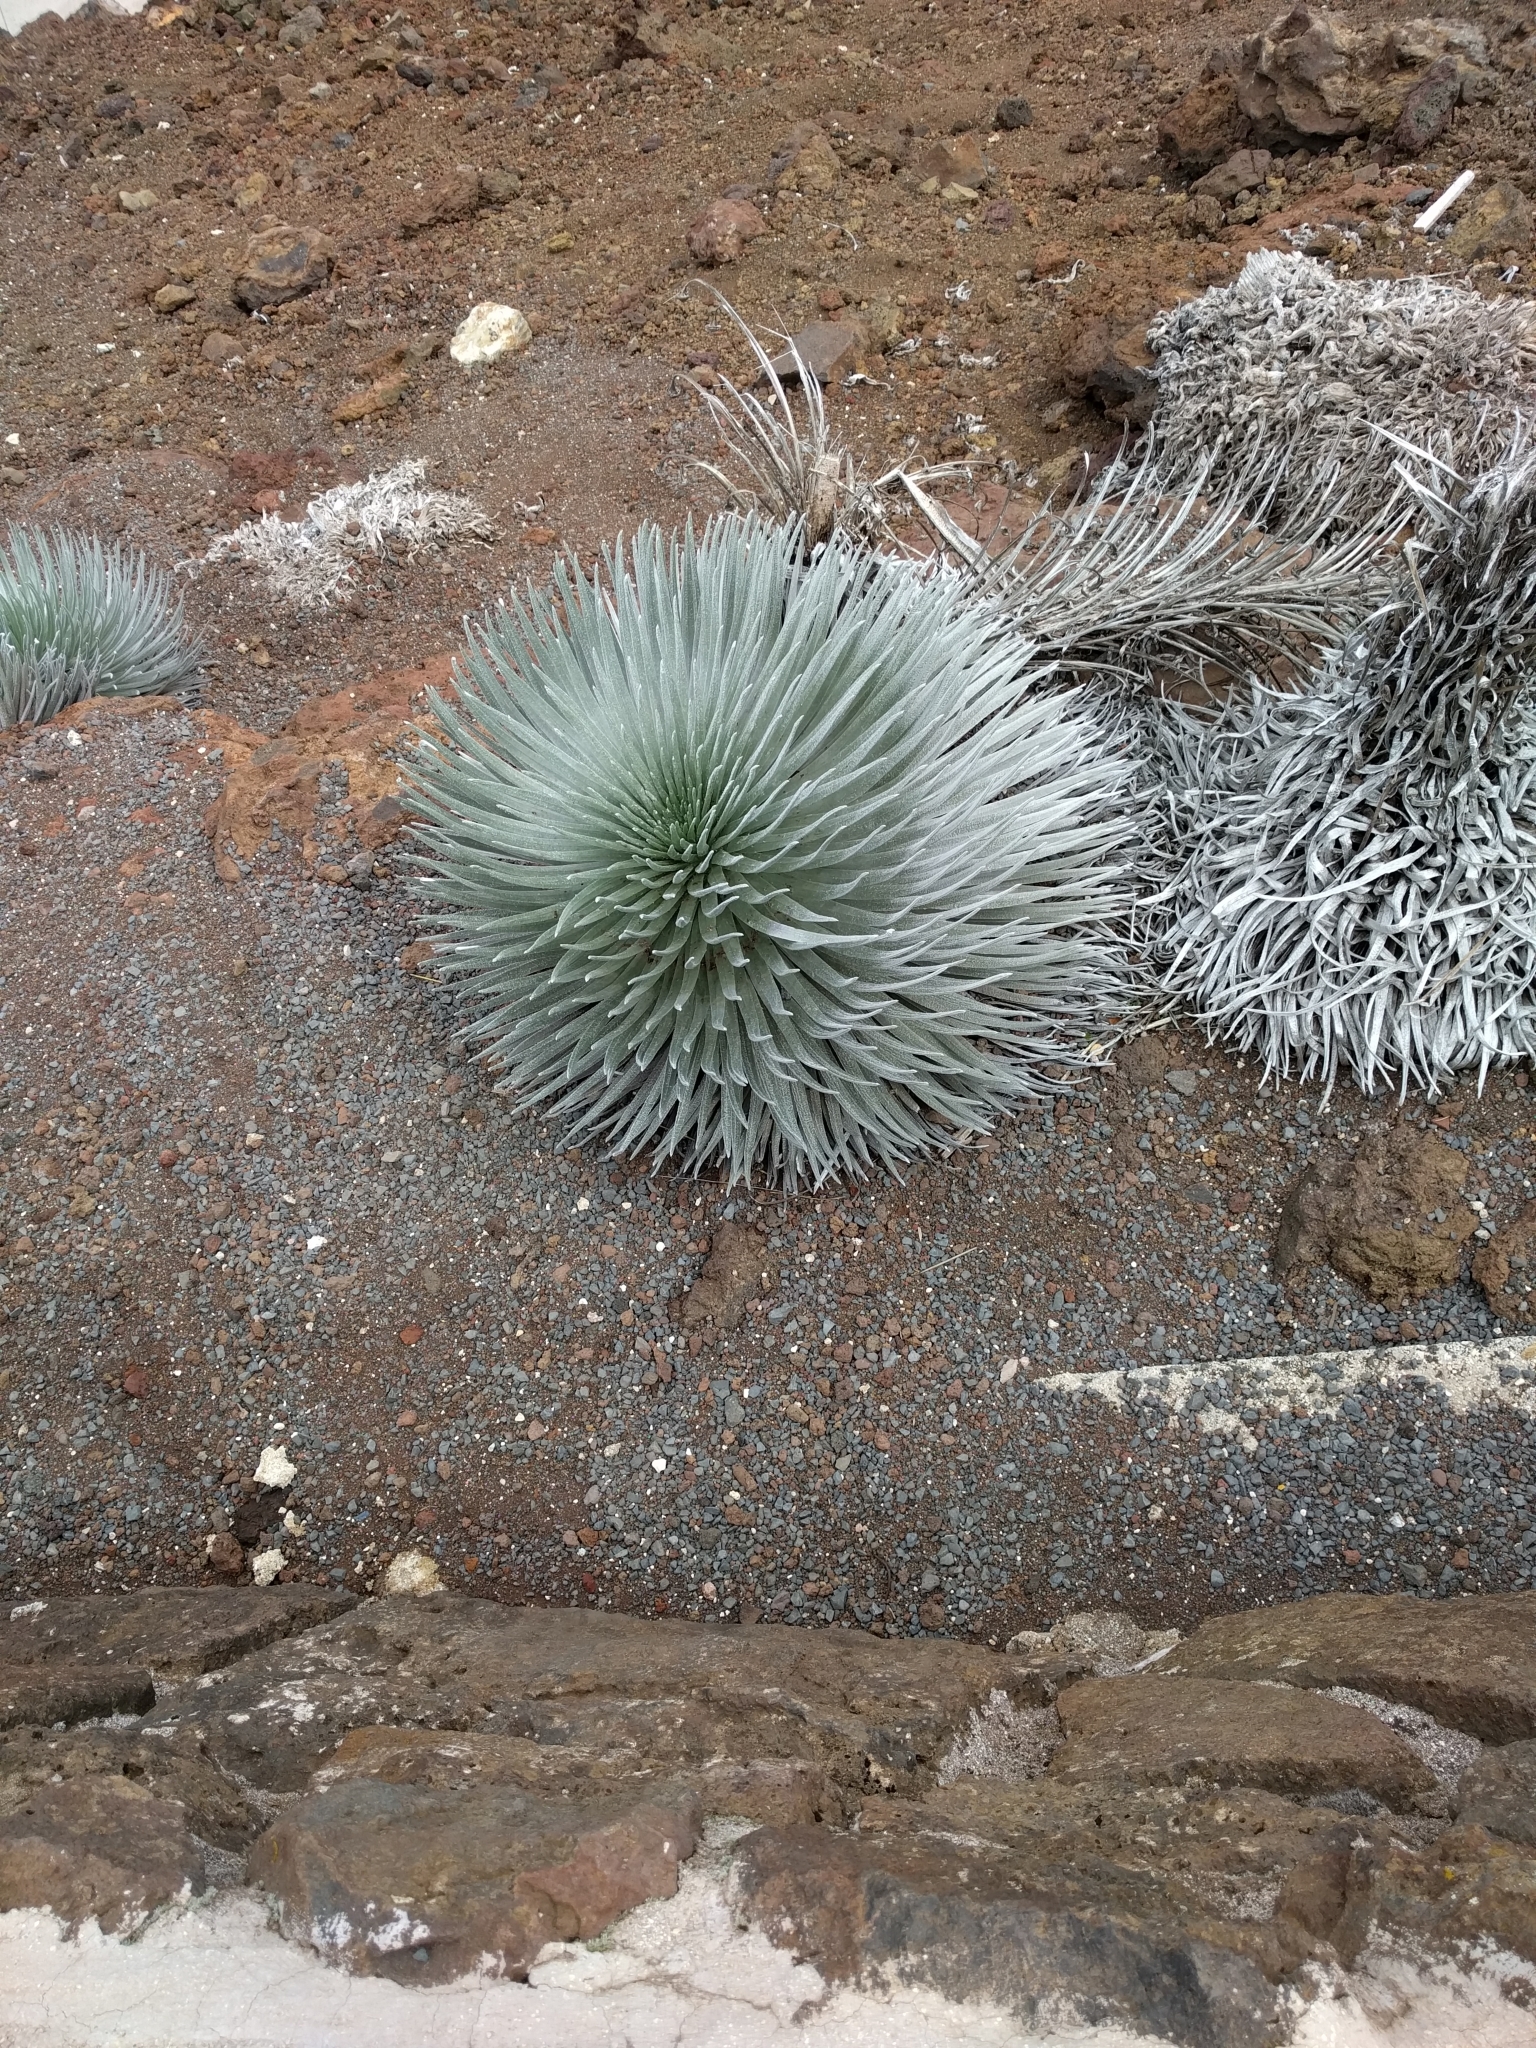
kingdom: Plantae
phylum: Tracheophyta
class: Magnoliopsida
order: Asterales
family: Asteraceae
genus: Argyroxiphium
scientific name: Argyroxiphium sandwicense
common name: Silversword
